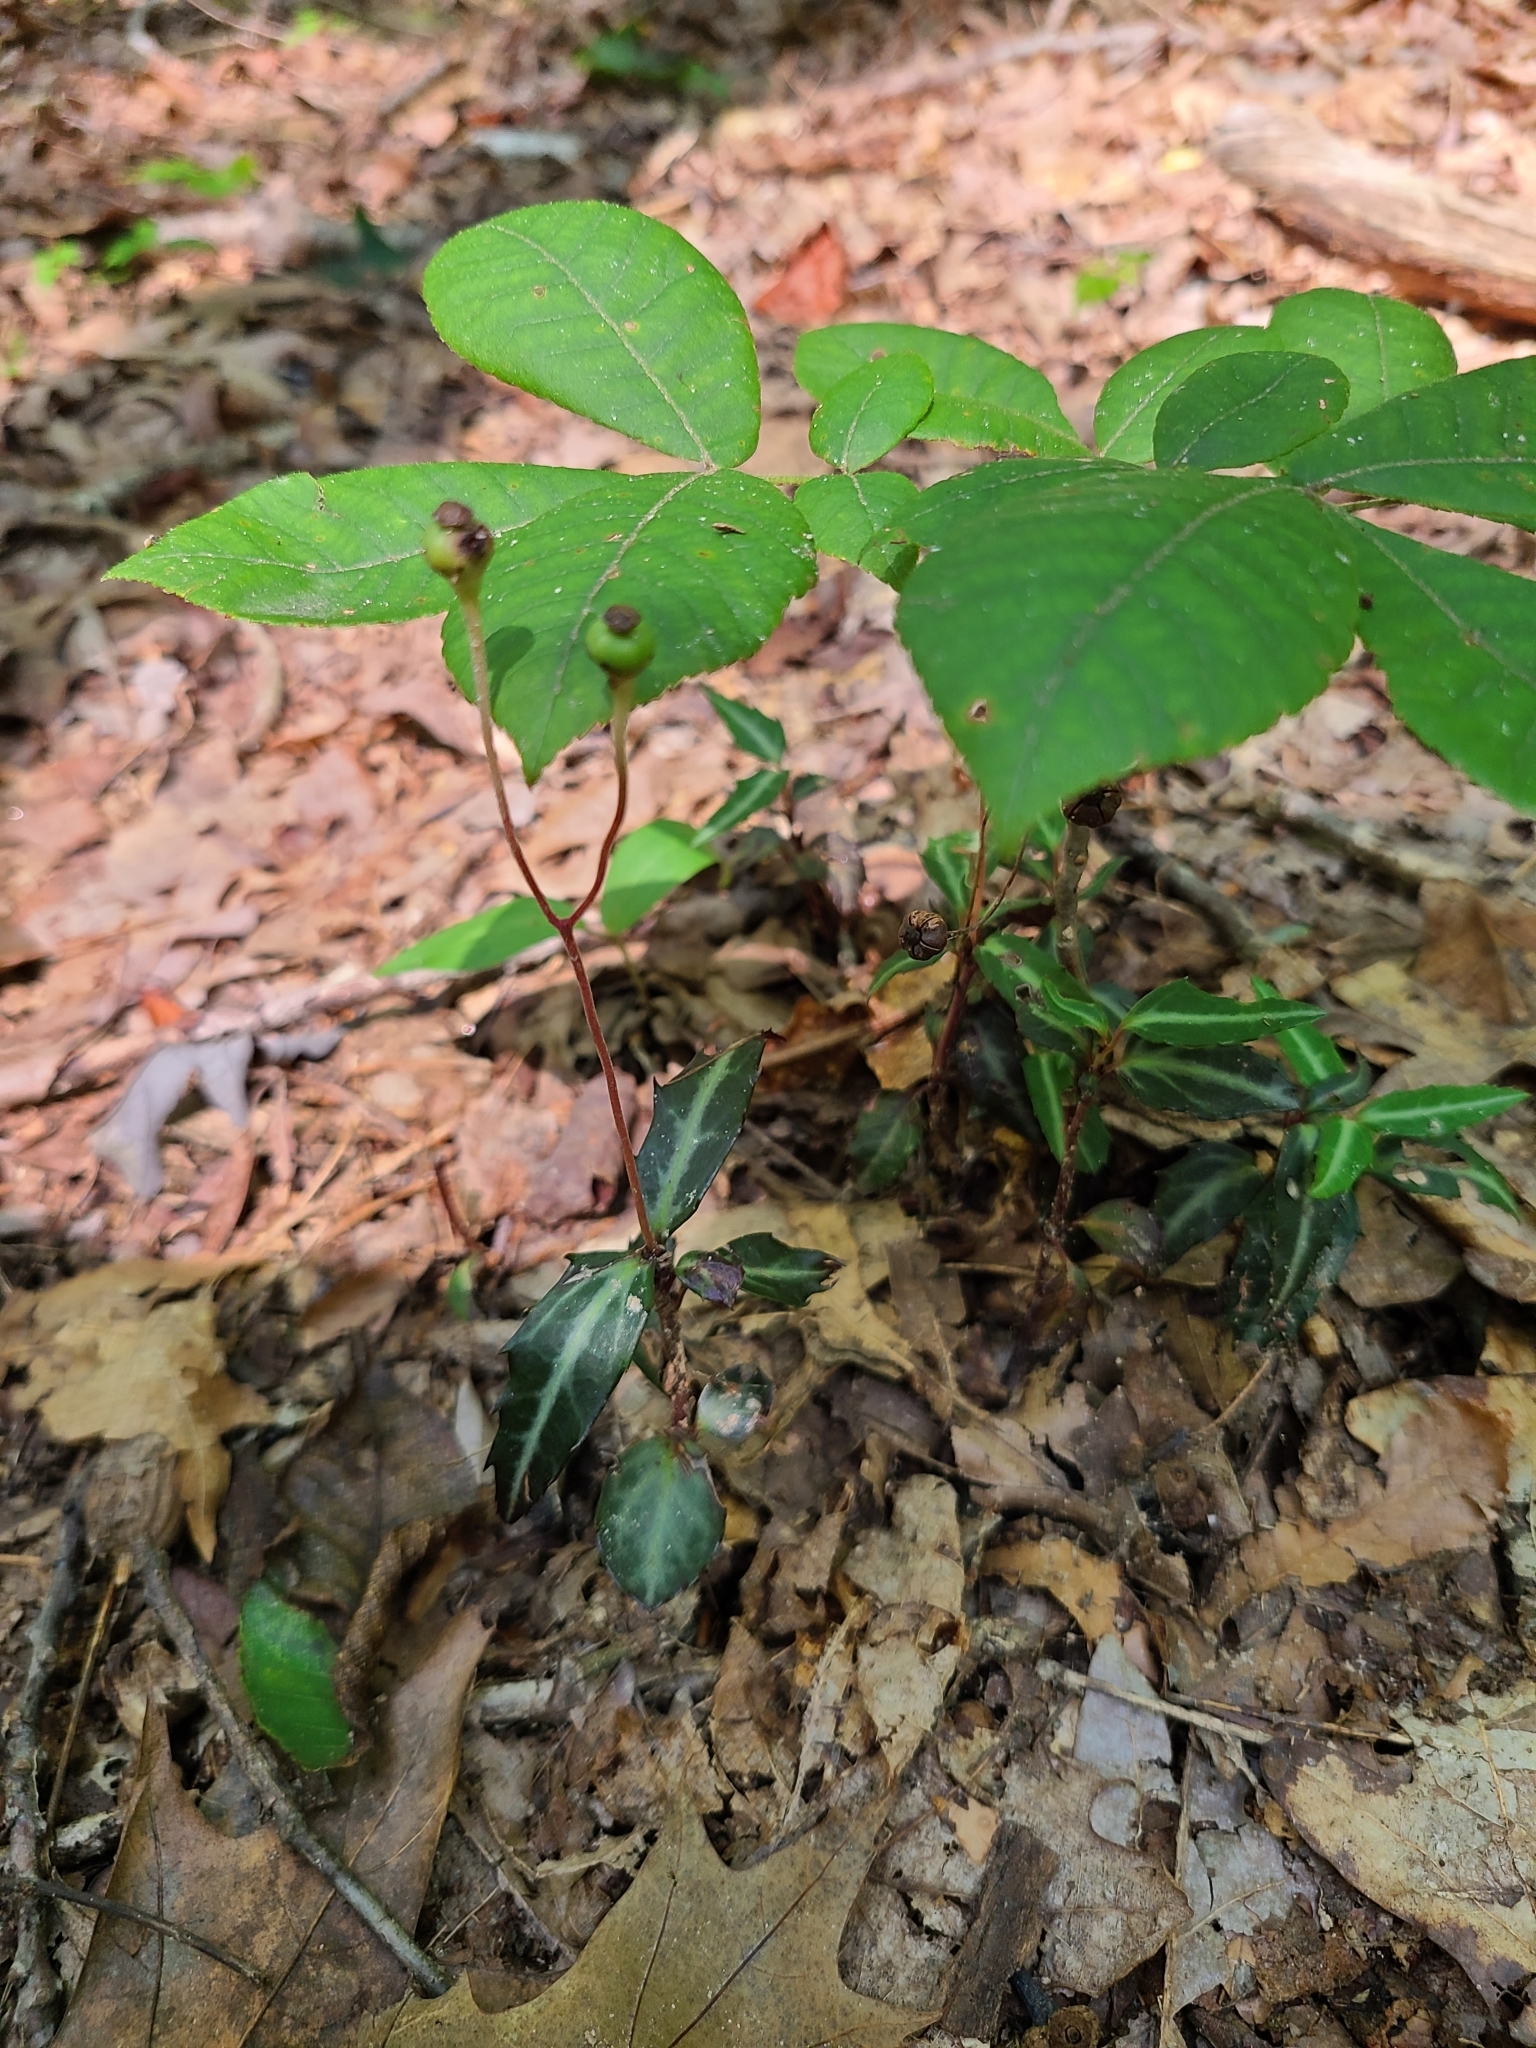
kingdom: Plantae
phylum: Tracheophyta
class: Magnoliopsida
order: Ericales
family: Ericaceae
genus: Chimaphila
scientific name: Chimaphila maculata
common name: Spotted pipsissewa
